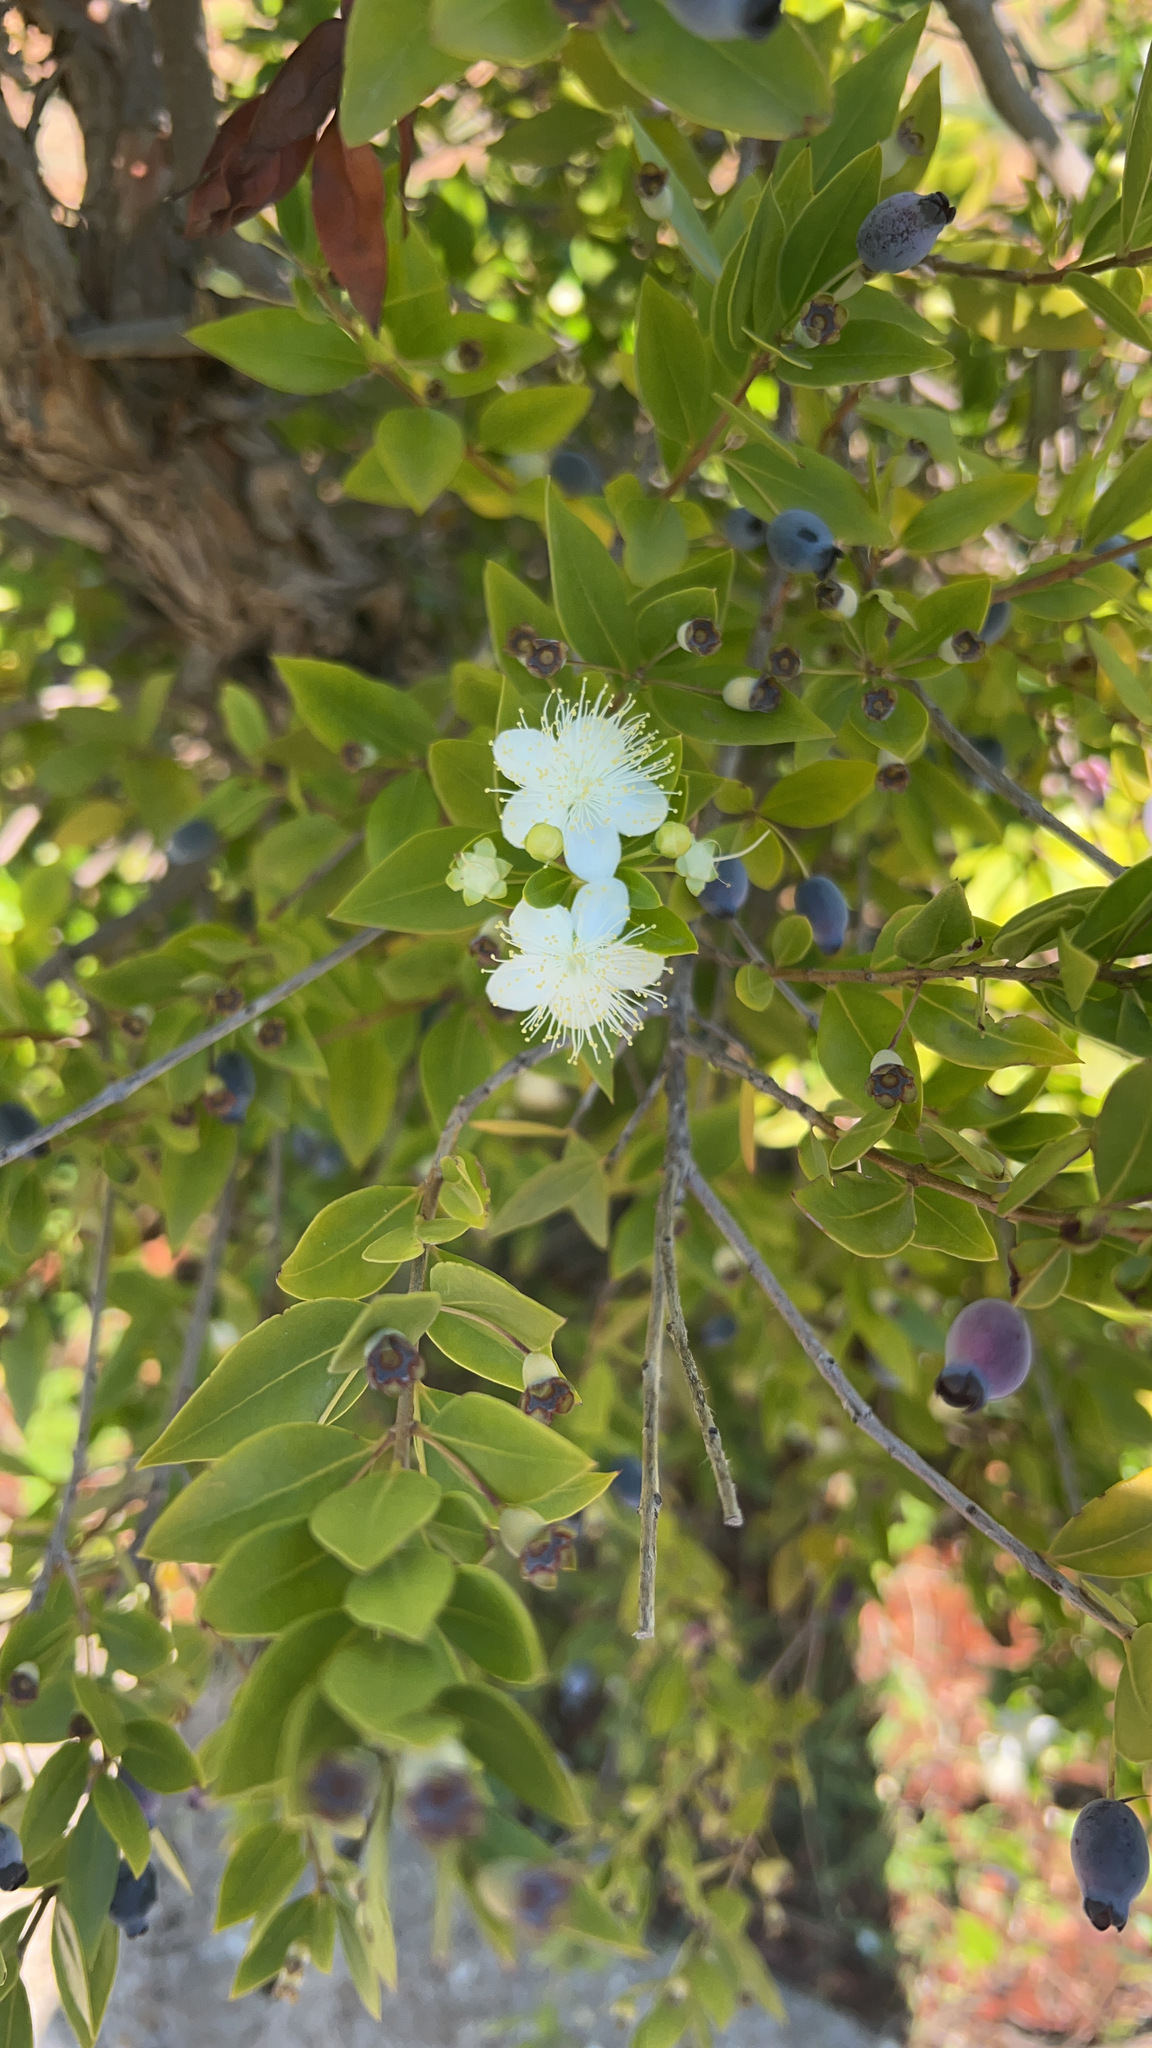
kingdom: Plantae
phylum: Tracheophyta
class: Magnoliopsida
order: Myrtales
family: Myrtaceae
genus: Myrtus
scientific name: Myrtus communis
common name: Myrtle
